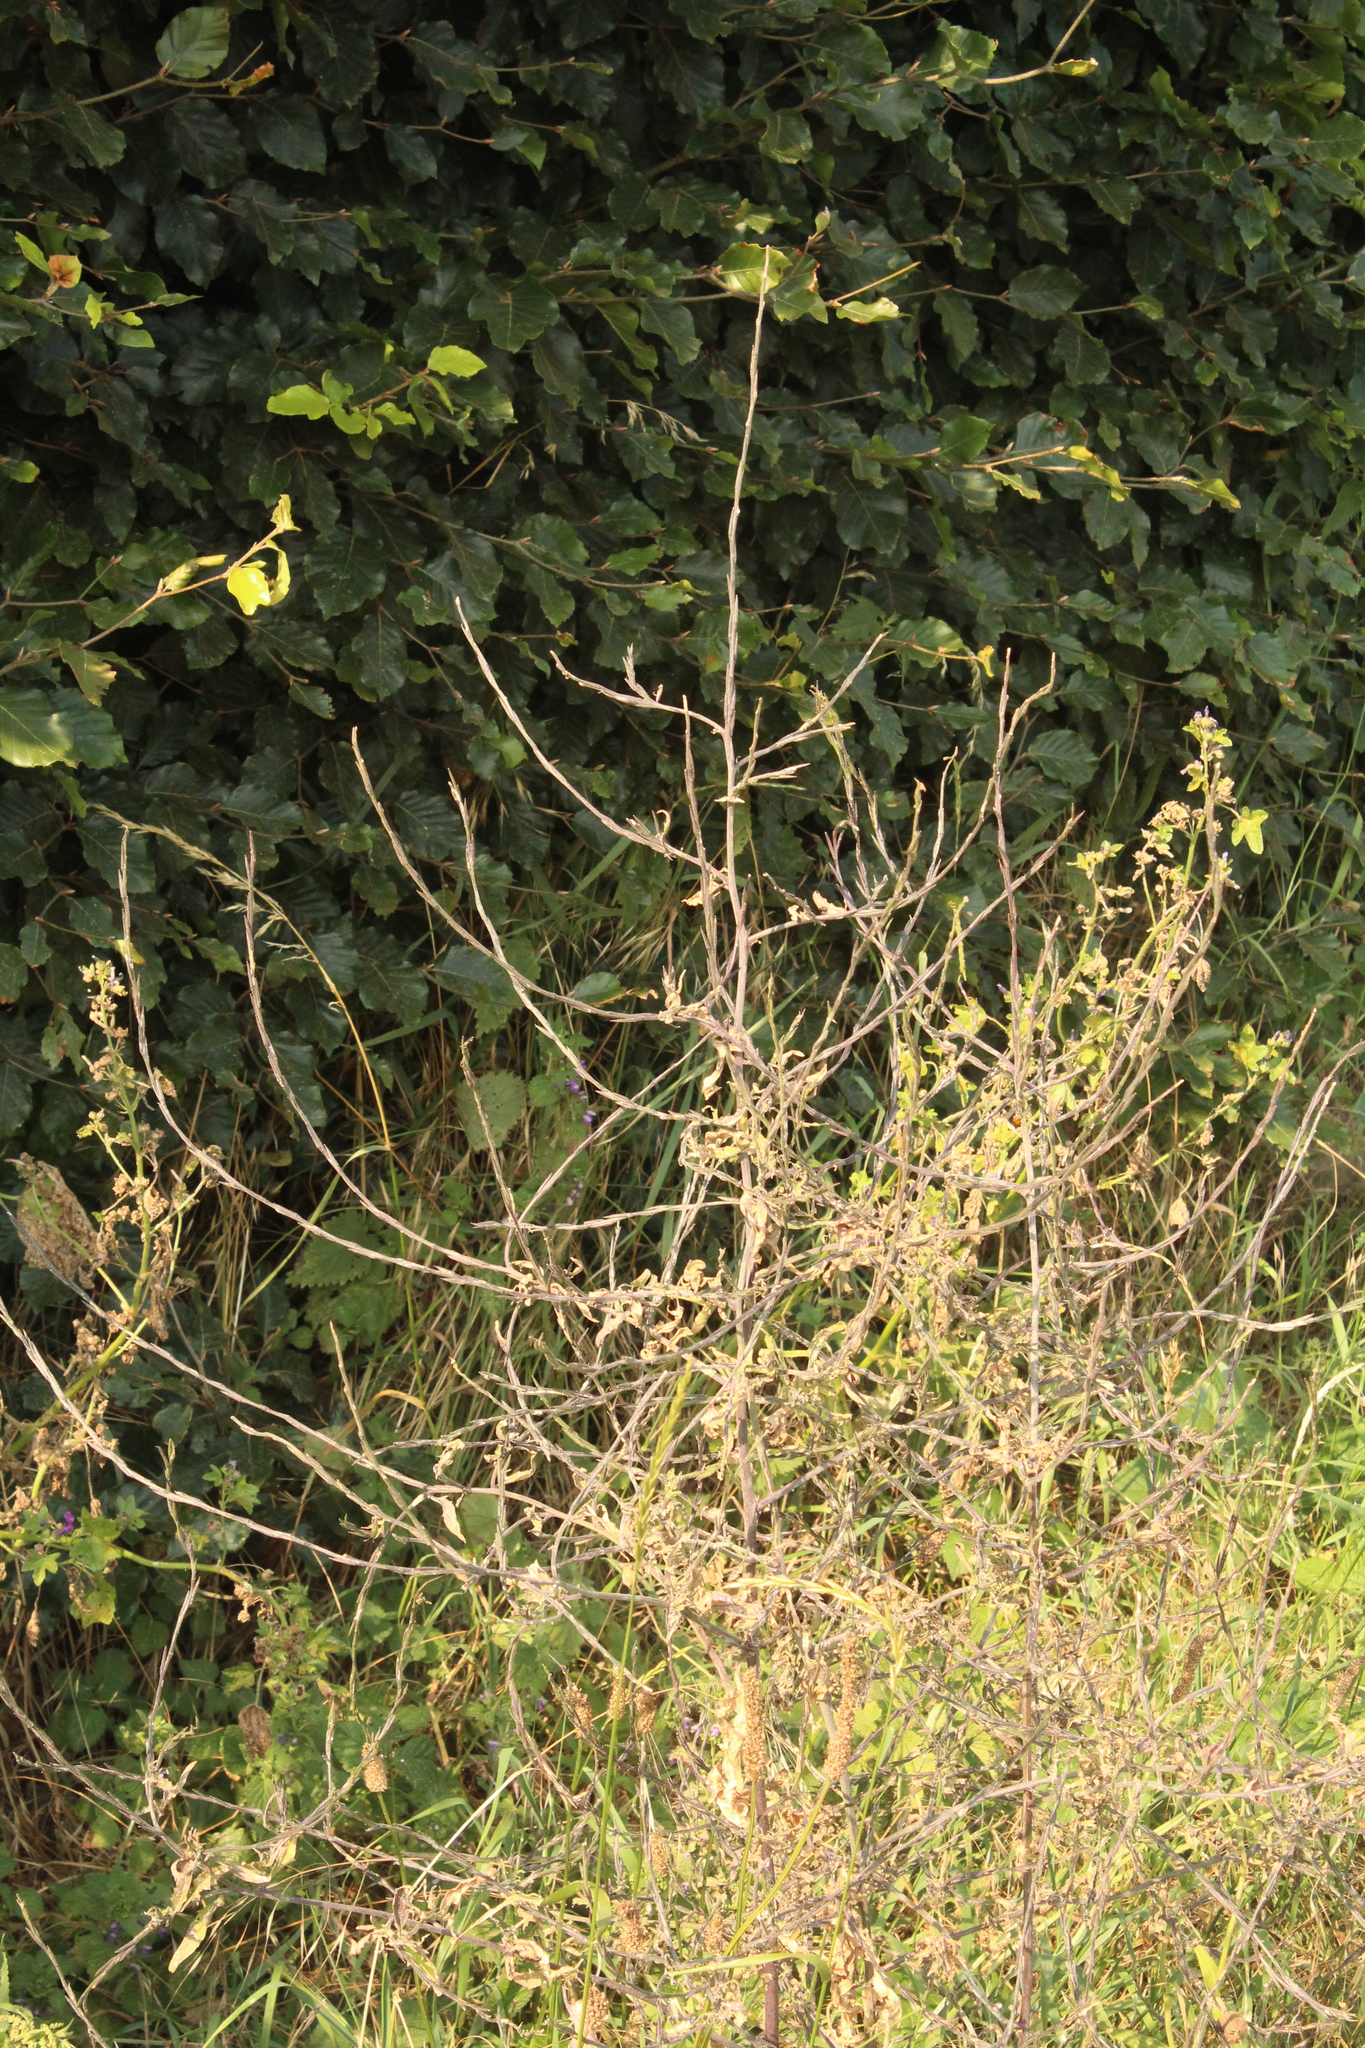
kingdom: Plantae
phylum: Tracheophyta
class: Magnoliopsida
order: Brassicales
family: Brassicaceae
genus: Sisymbrium
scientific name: Sisymbrium officinale
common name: Hedge mustard
